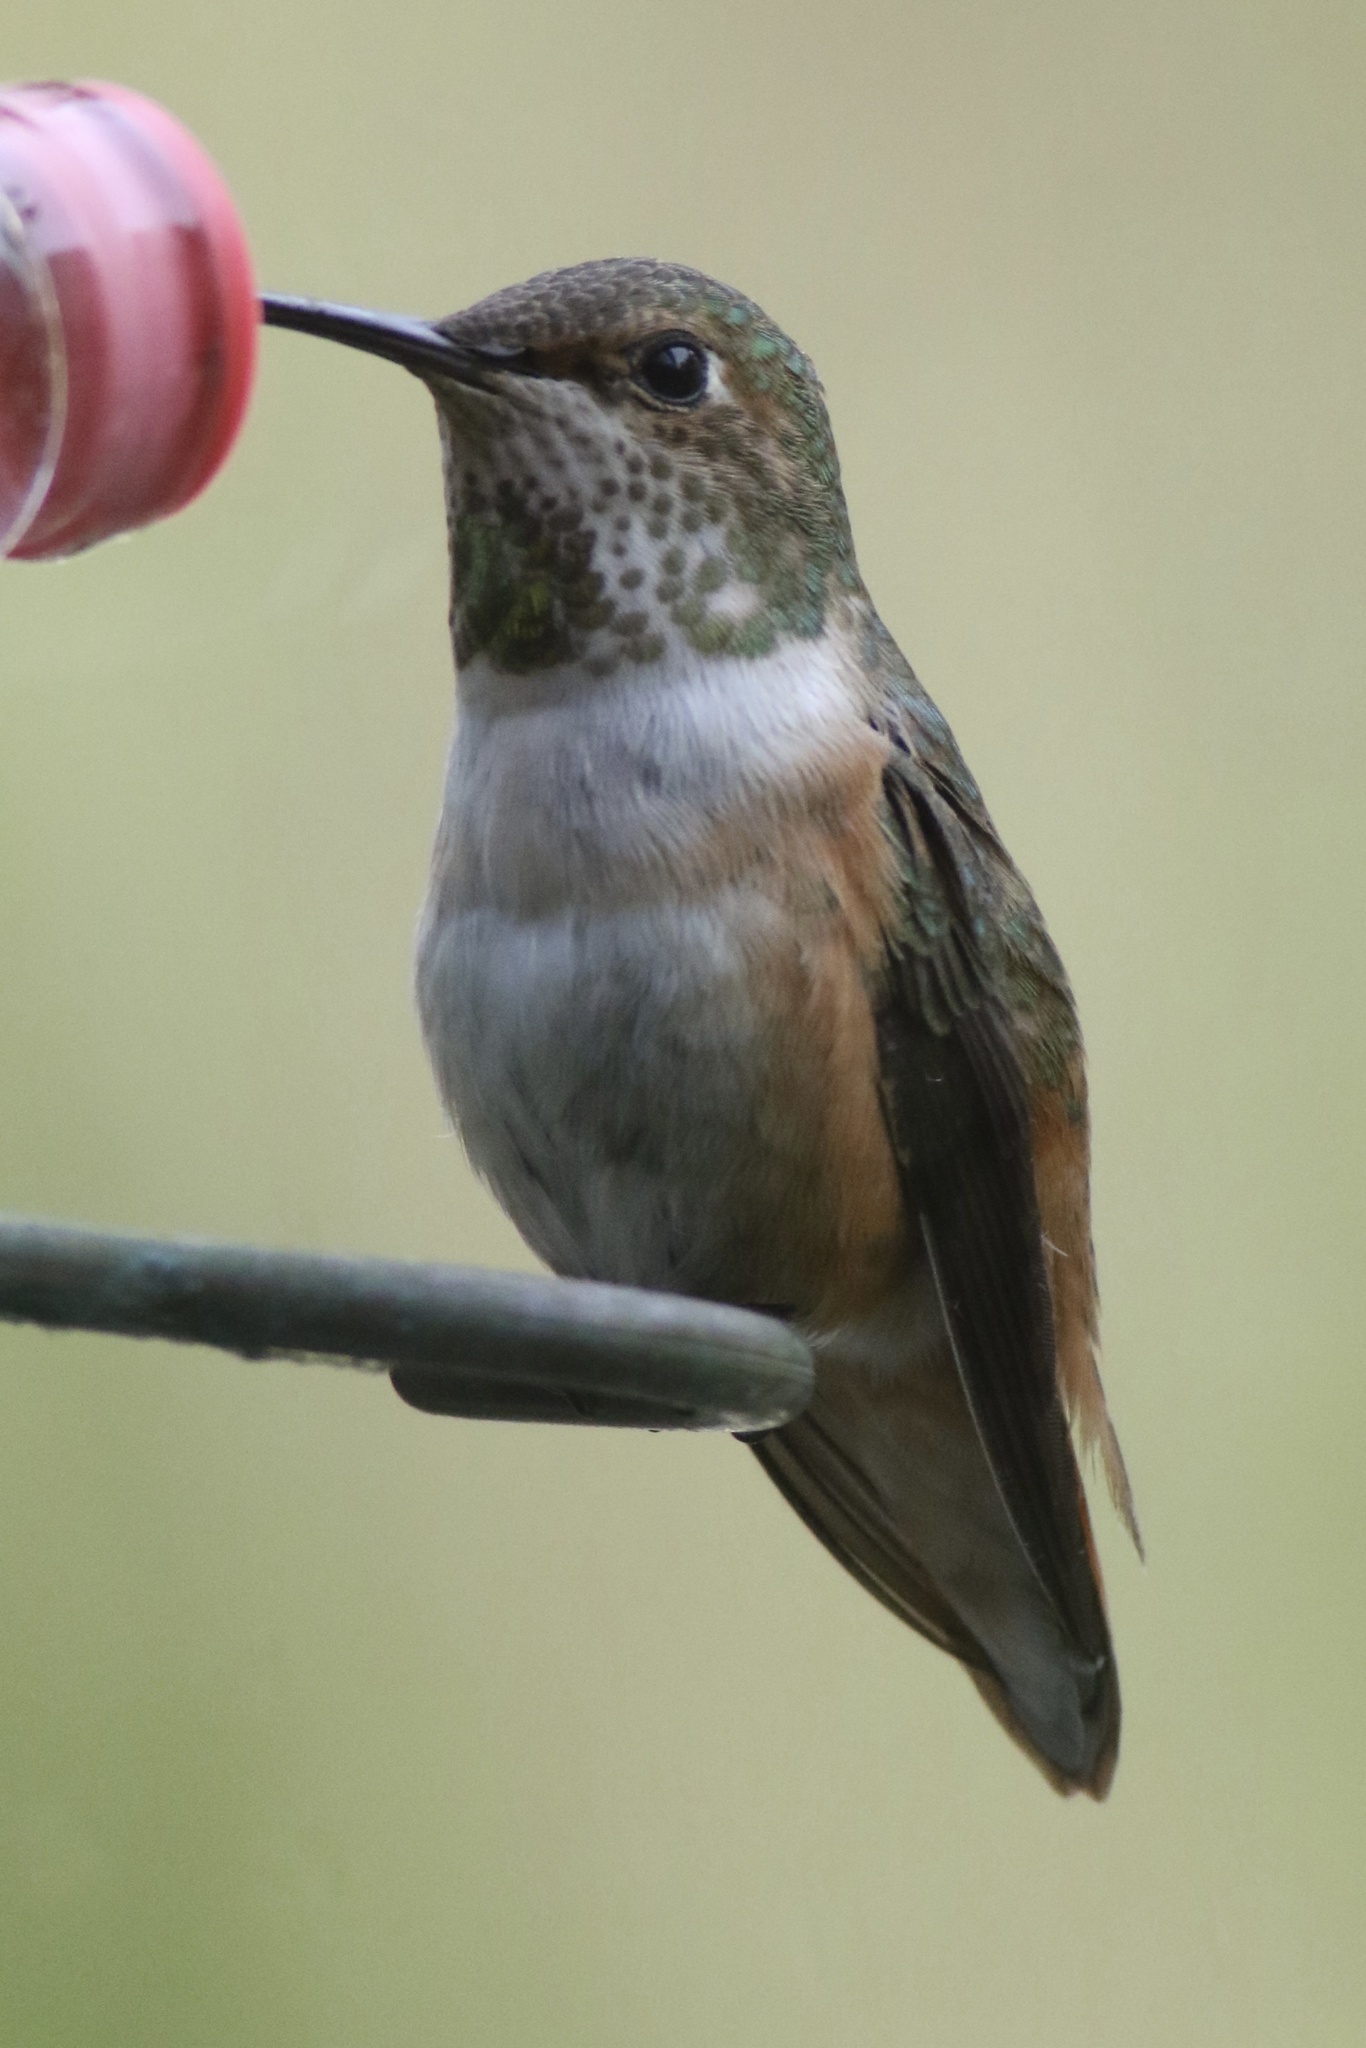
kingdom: Animalia
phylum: Chordata
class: Aves
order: Apodiformes
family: Trochilidae
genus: Selasphorus
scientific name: Selasphorus sasin
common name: Allen's hummingbird
